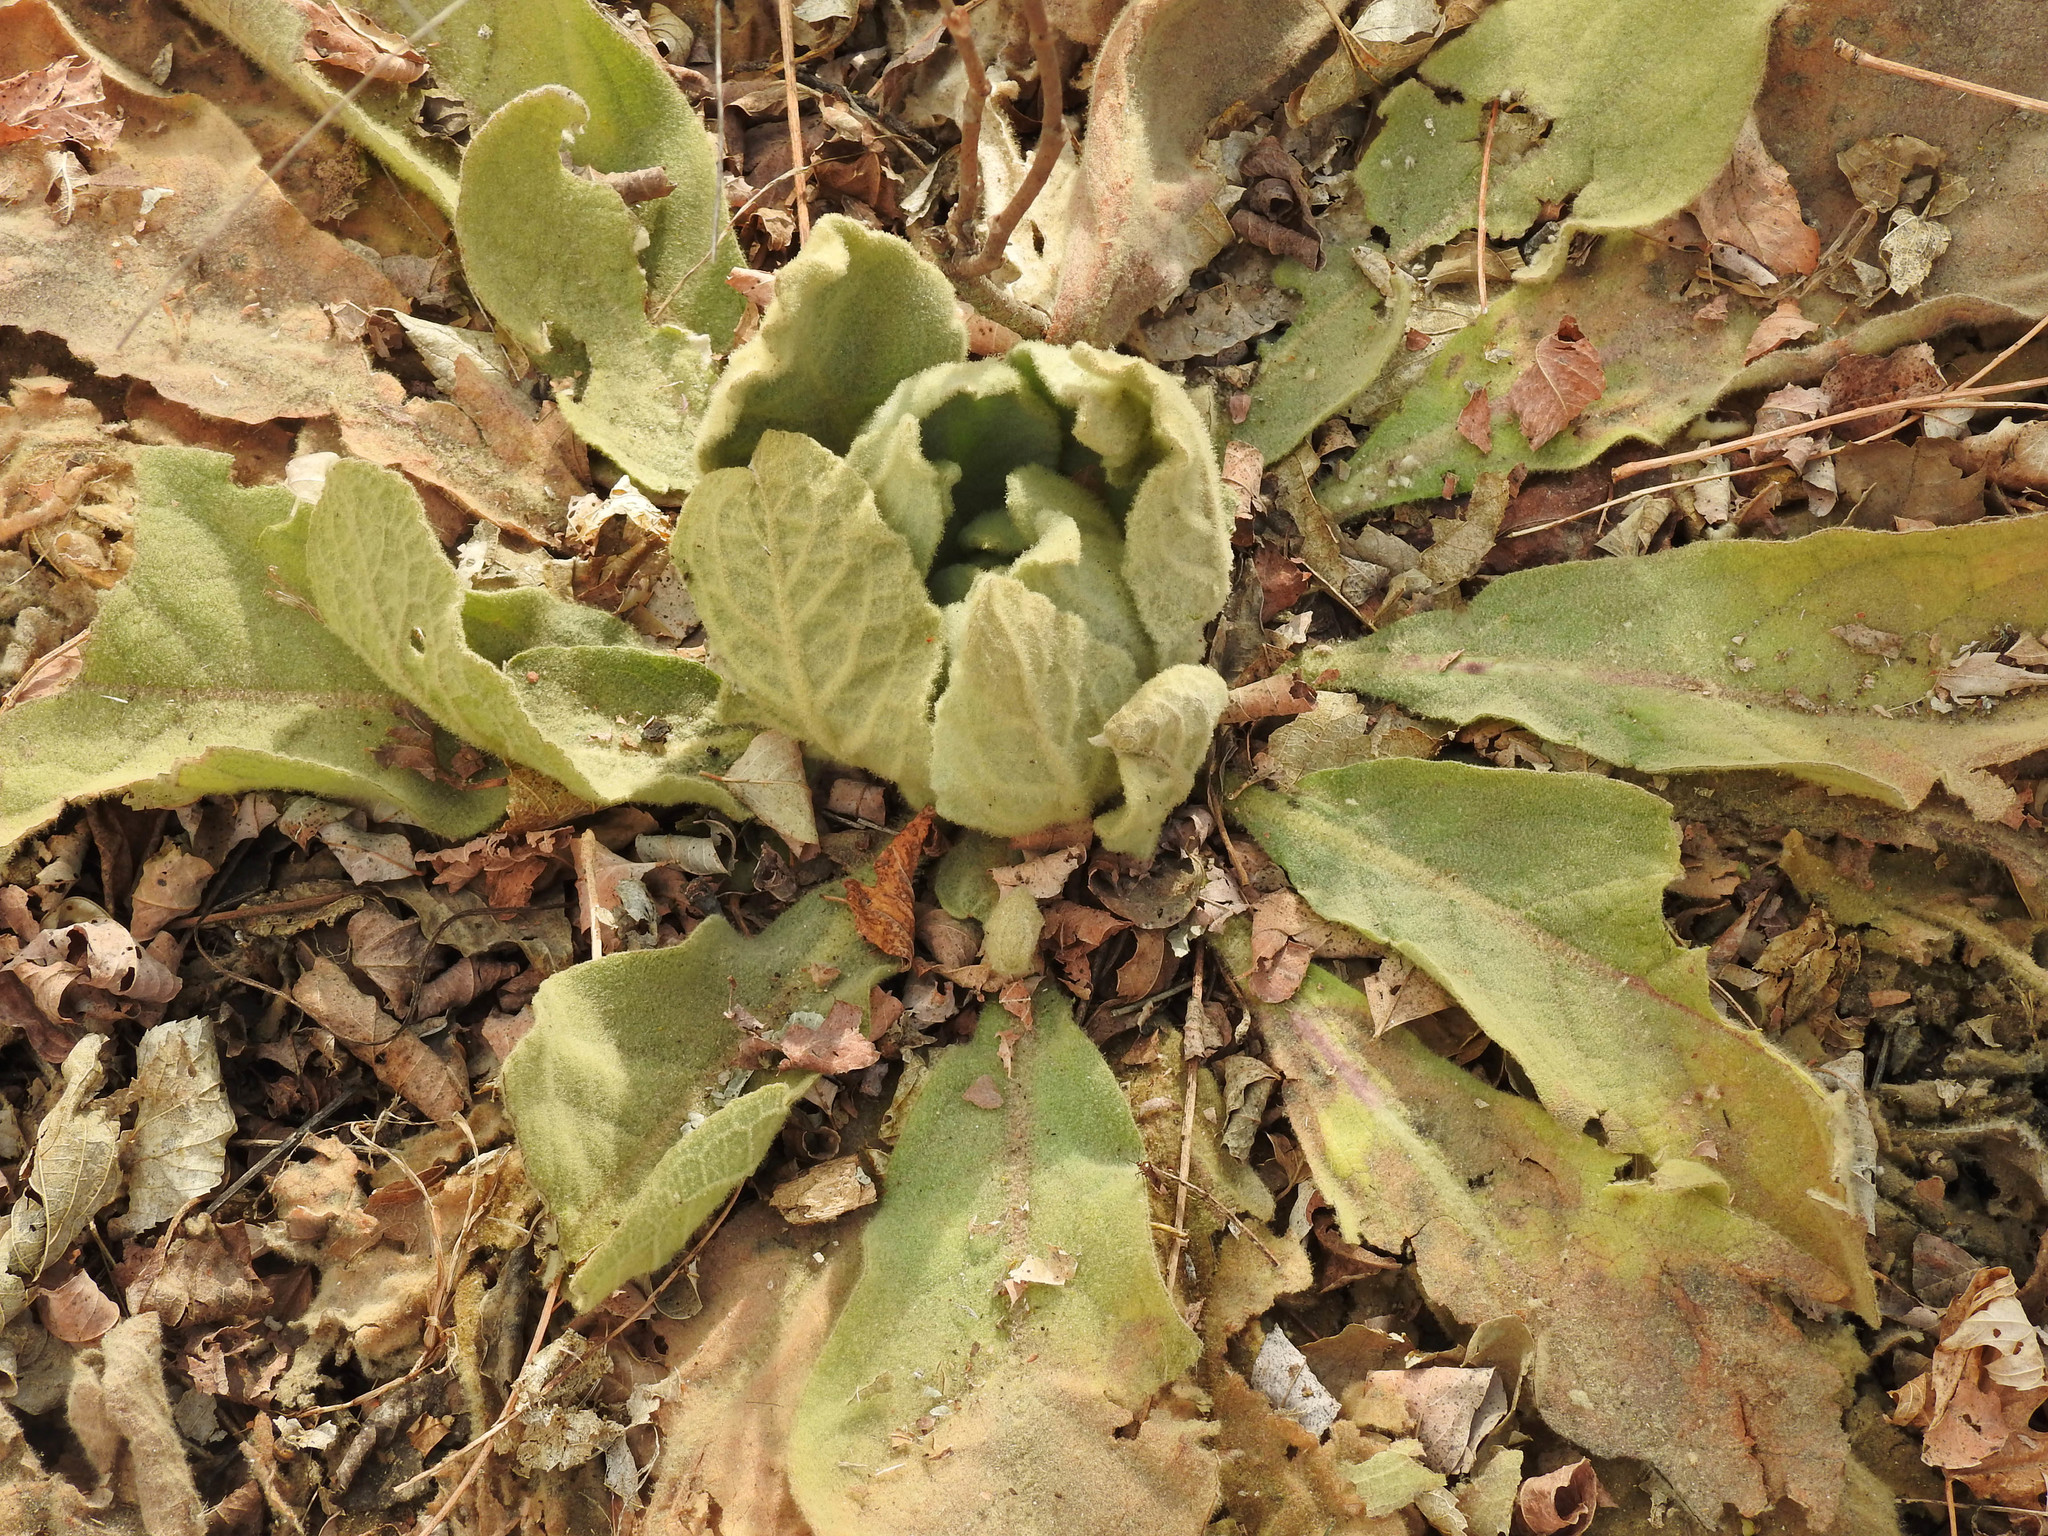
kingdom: Plantae
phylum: Tracheophyta
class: Magnoliopsida
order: Lamiales
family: Scrophulariaceae
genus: Verbascum
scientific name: Verbascum thapsus
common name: Common mullein
